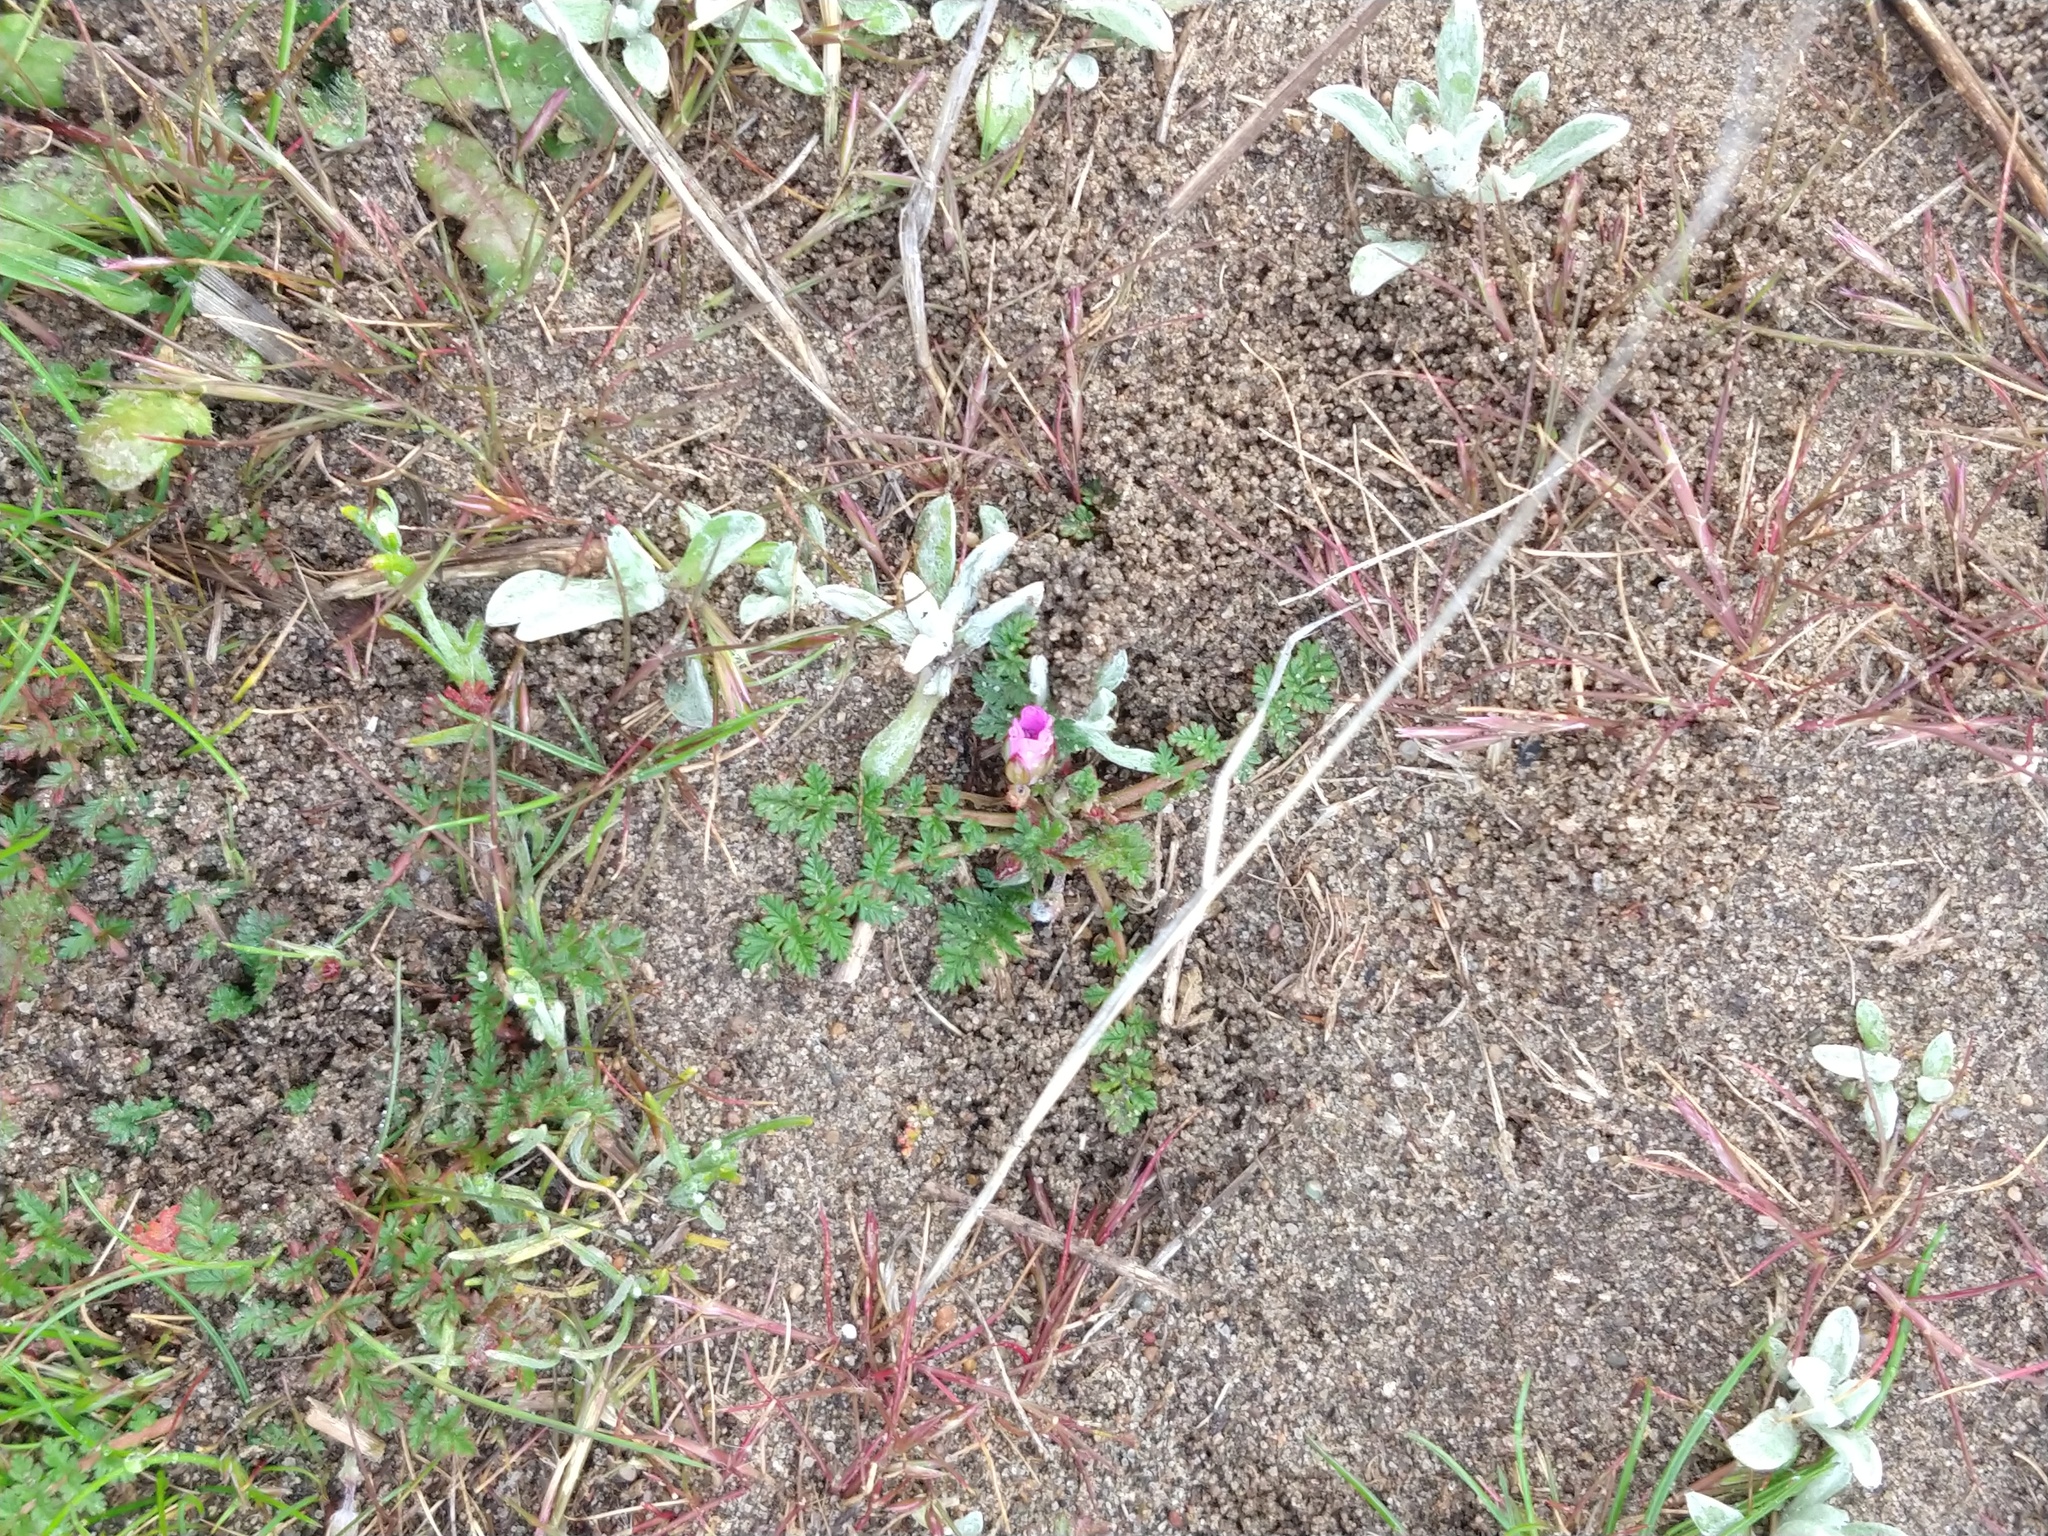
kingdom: Plantae
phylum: Tracheophyta
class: Magnoliopsida
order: Geraniales
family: Geraniaceae
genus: Erodium
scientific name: Erodium cicutarium
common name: Common stork's-bill
